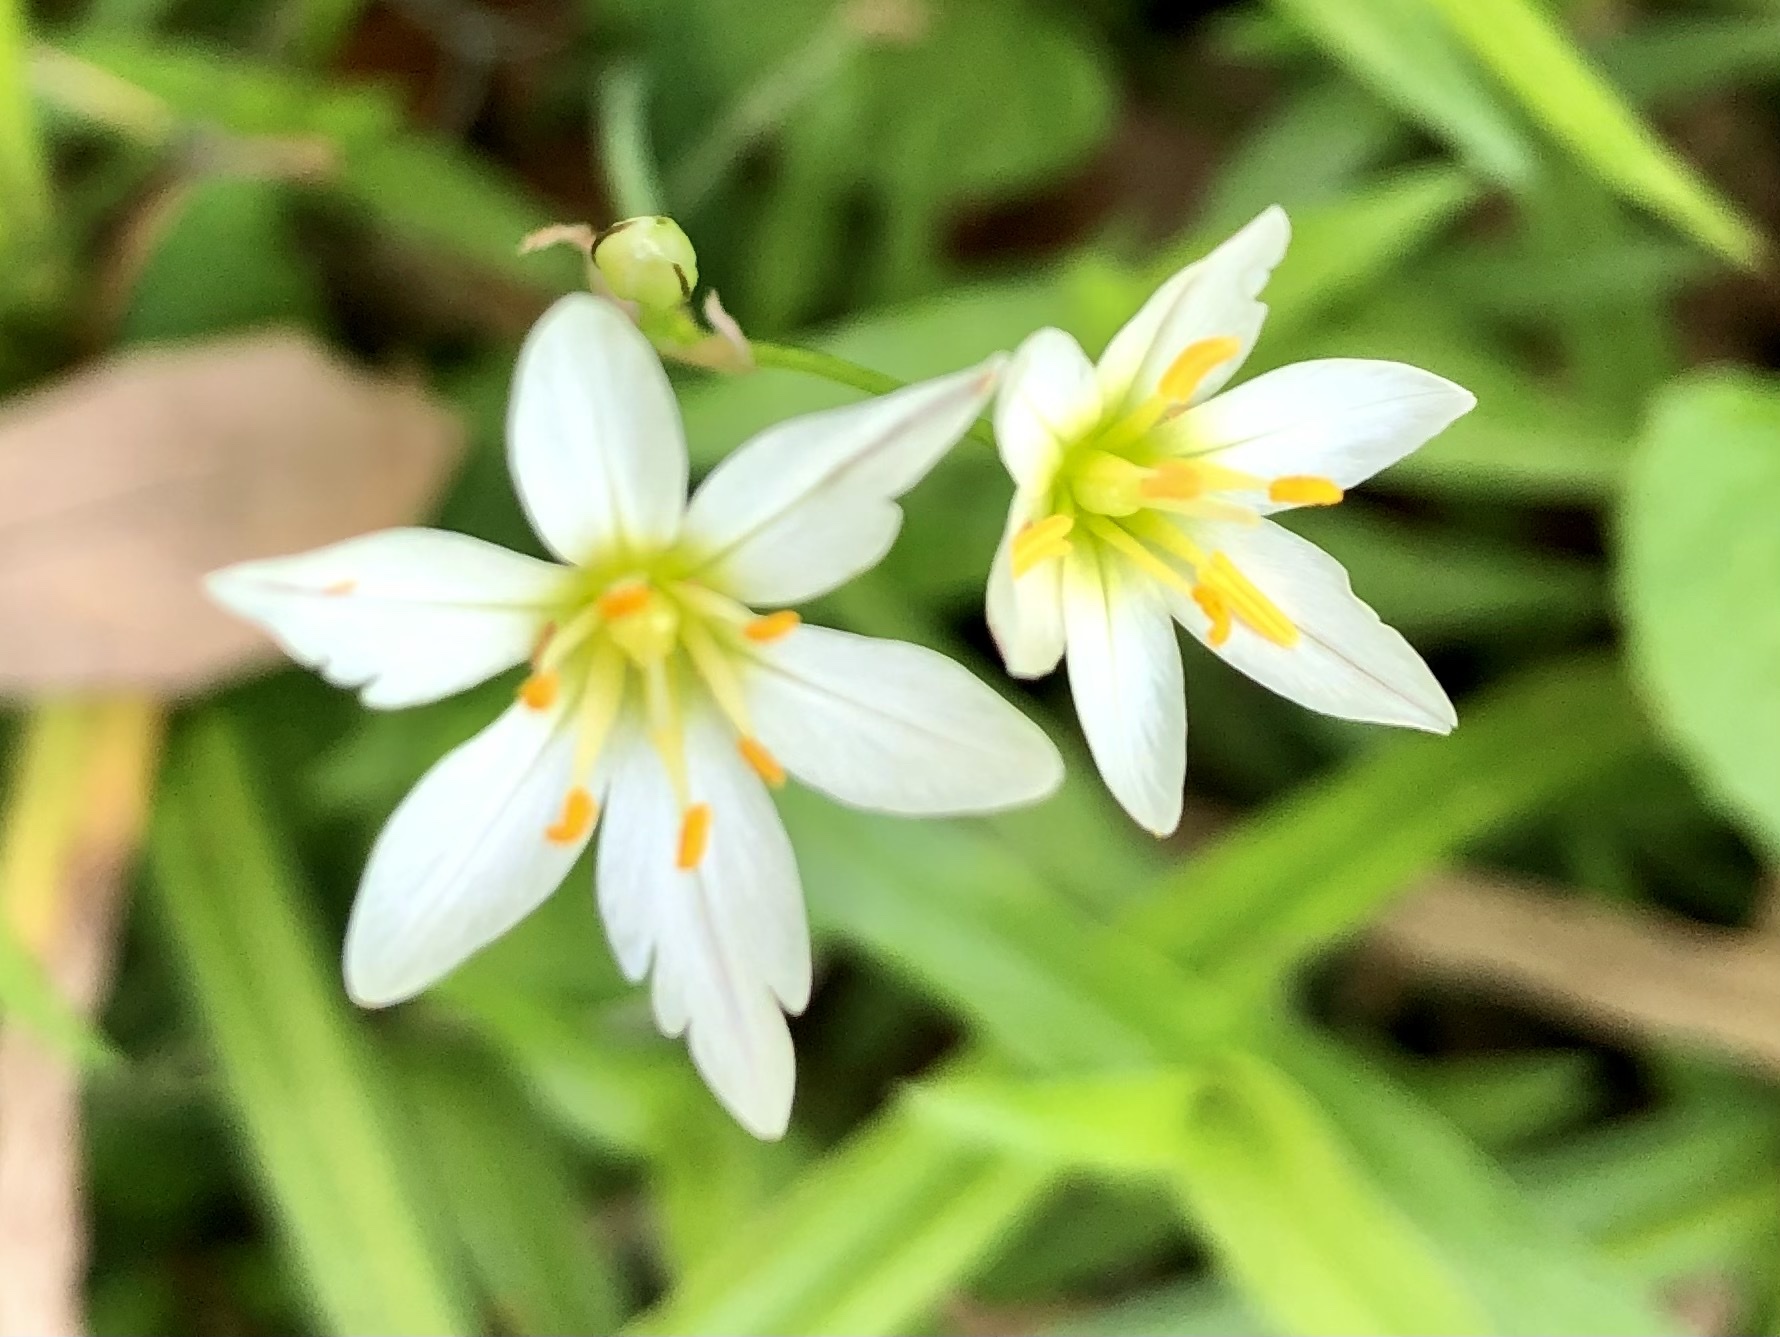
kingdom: Plantae
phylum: Tracheophyta
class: Liliopsida
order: Asparagales
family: Amaryllidaceae
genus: Nothoscordum
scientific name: Nothoscordum bivalve
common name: Crow-poison
